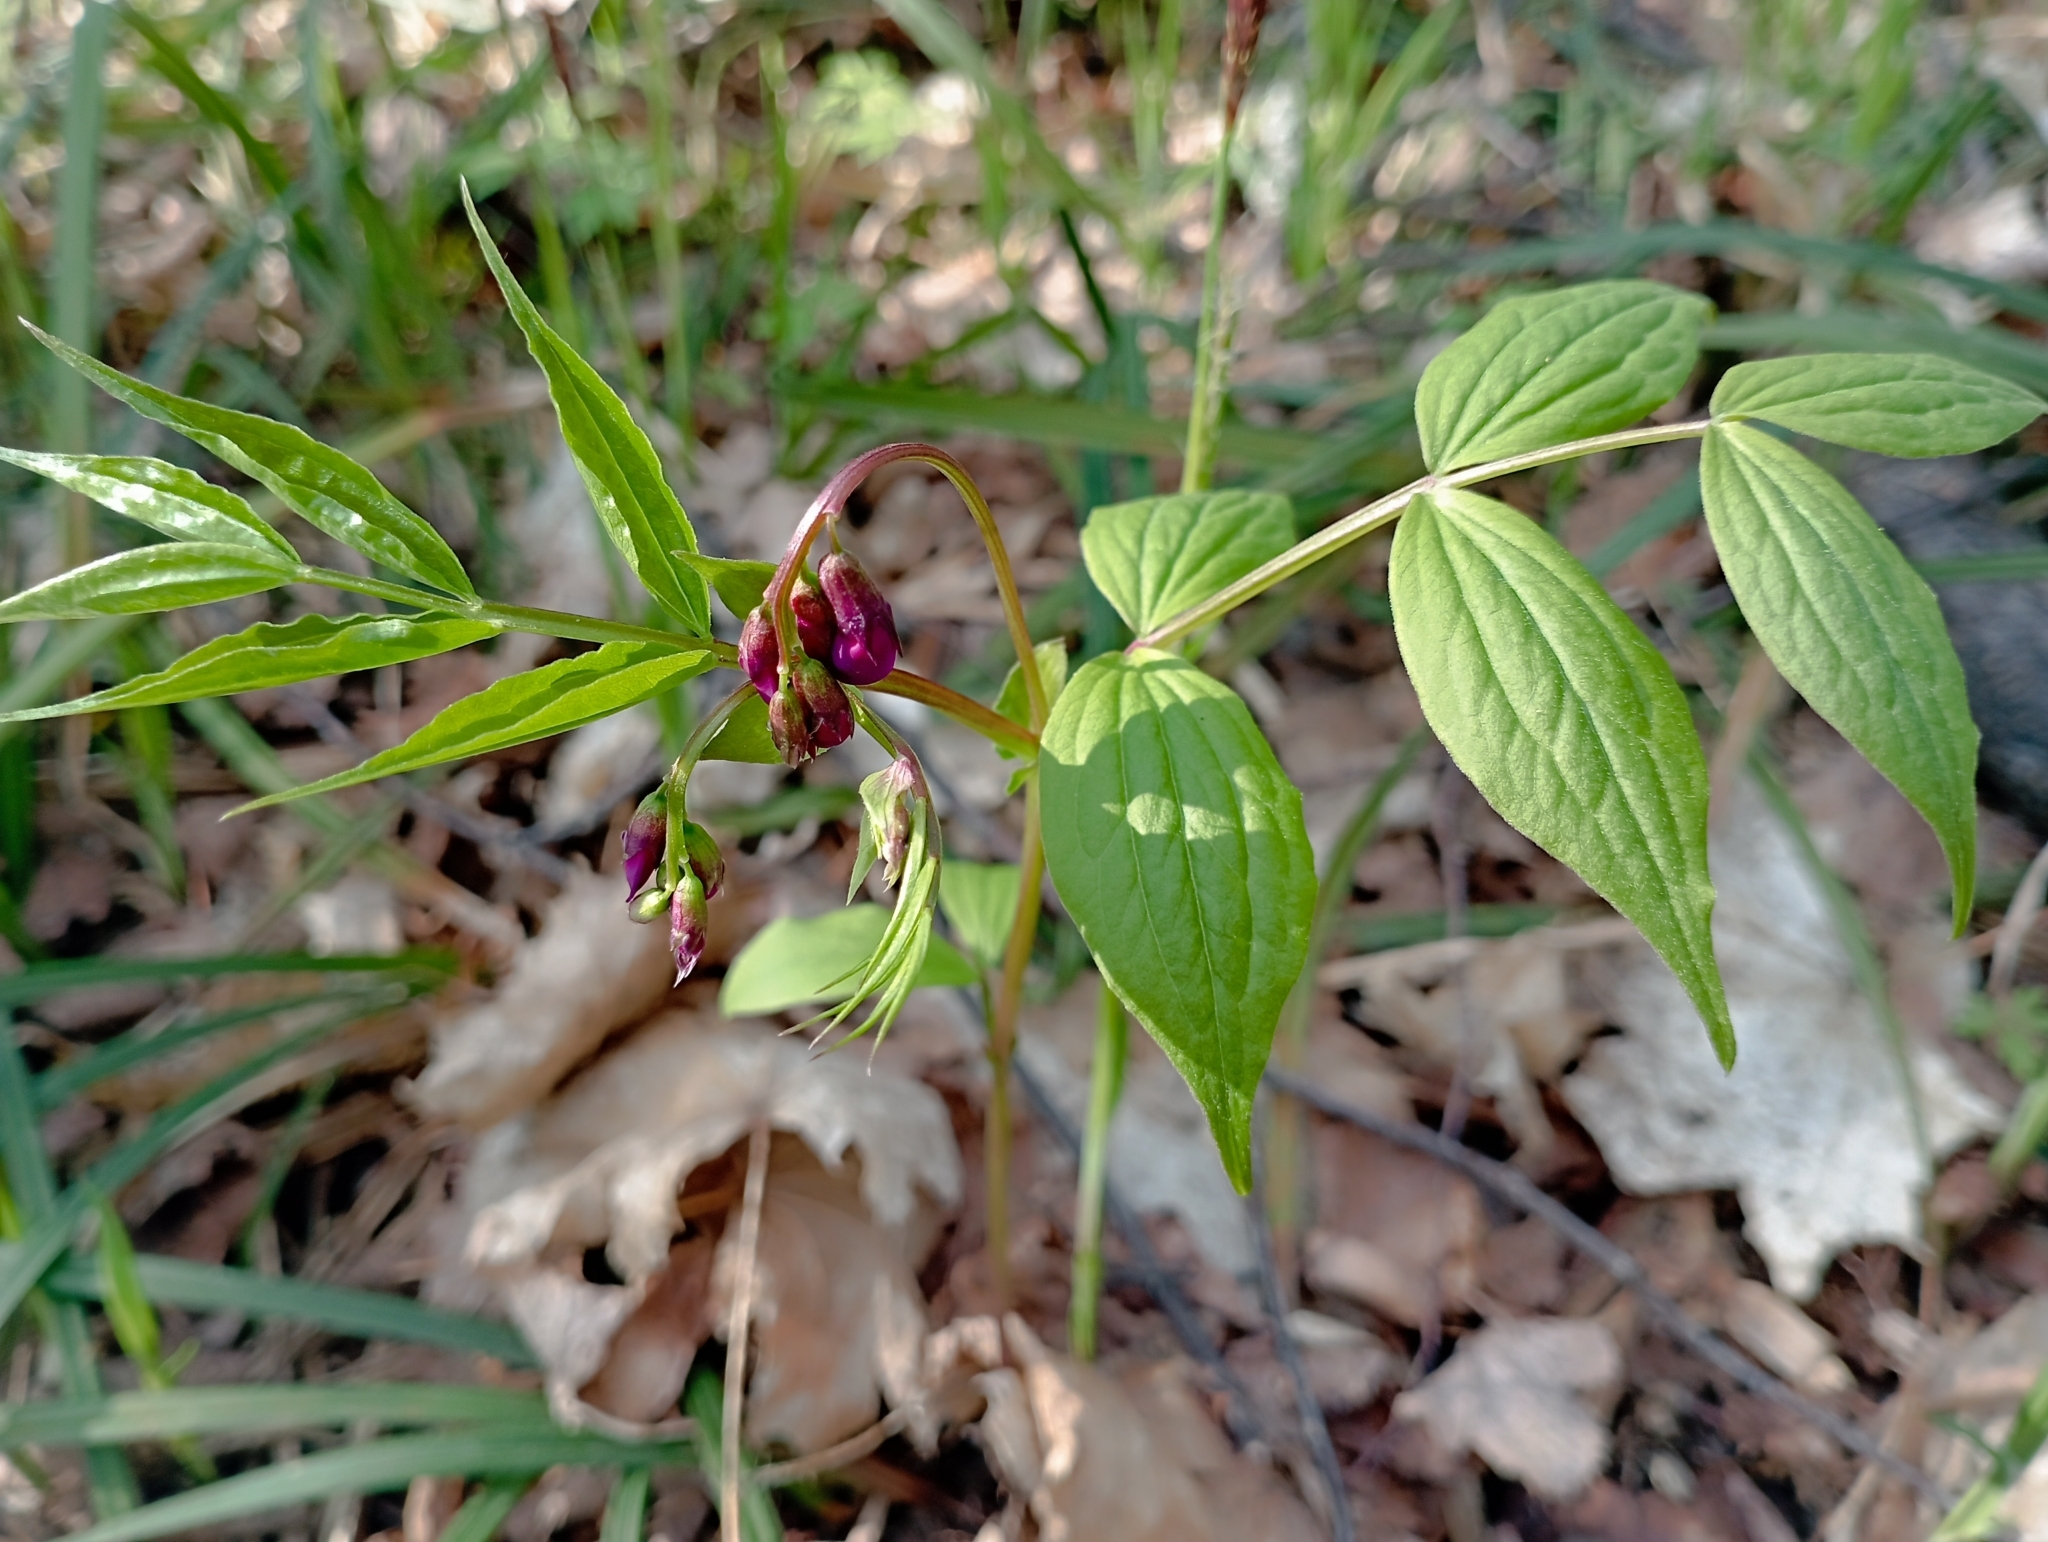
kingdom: Plantae
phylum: Tracheophyta
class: Magnoliopsida
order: Fabales
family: Fabaceae
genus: Lathyrus
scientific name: Lathyrus vernus
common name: Spring pea
